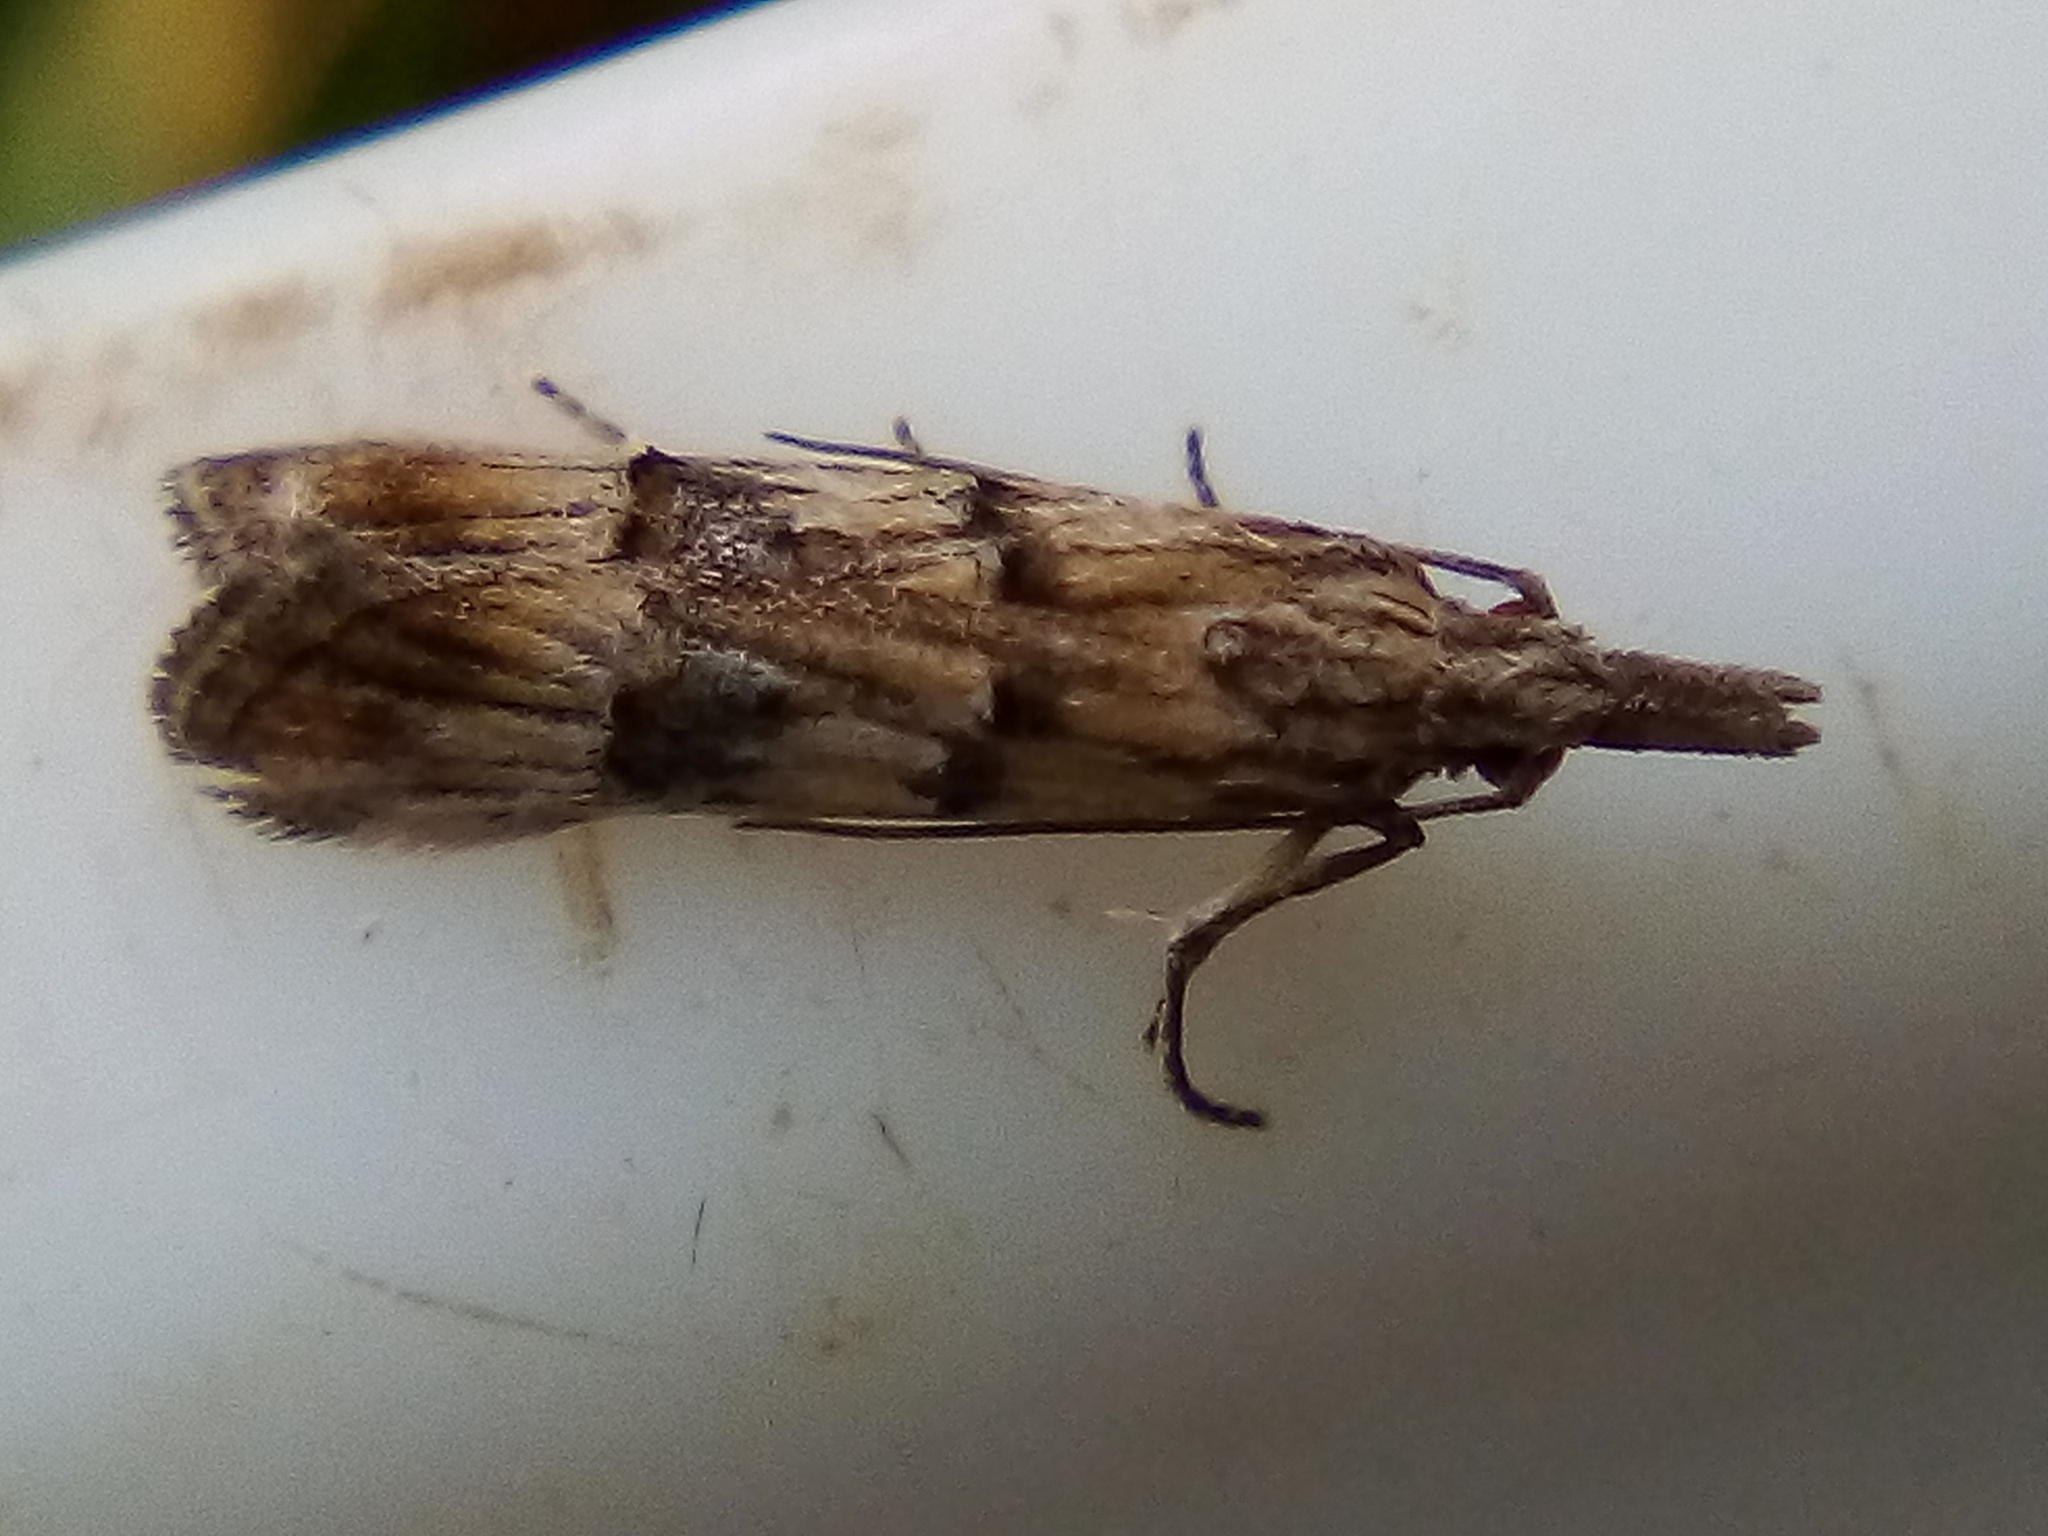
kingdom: Animalia
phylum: Arthropoda
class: Insecta
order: Lepidoptera
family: Carposinidae
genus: Carposina
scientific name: Carposina neurophorella
